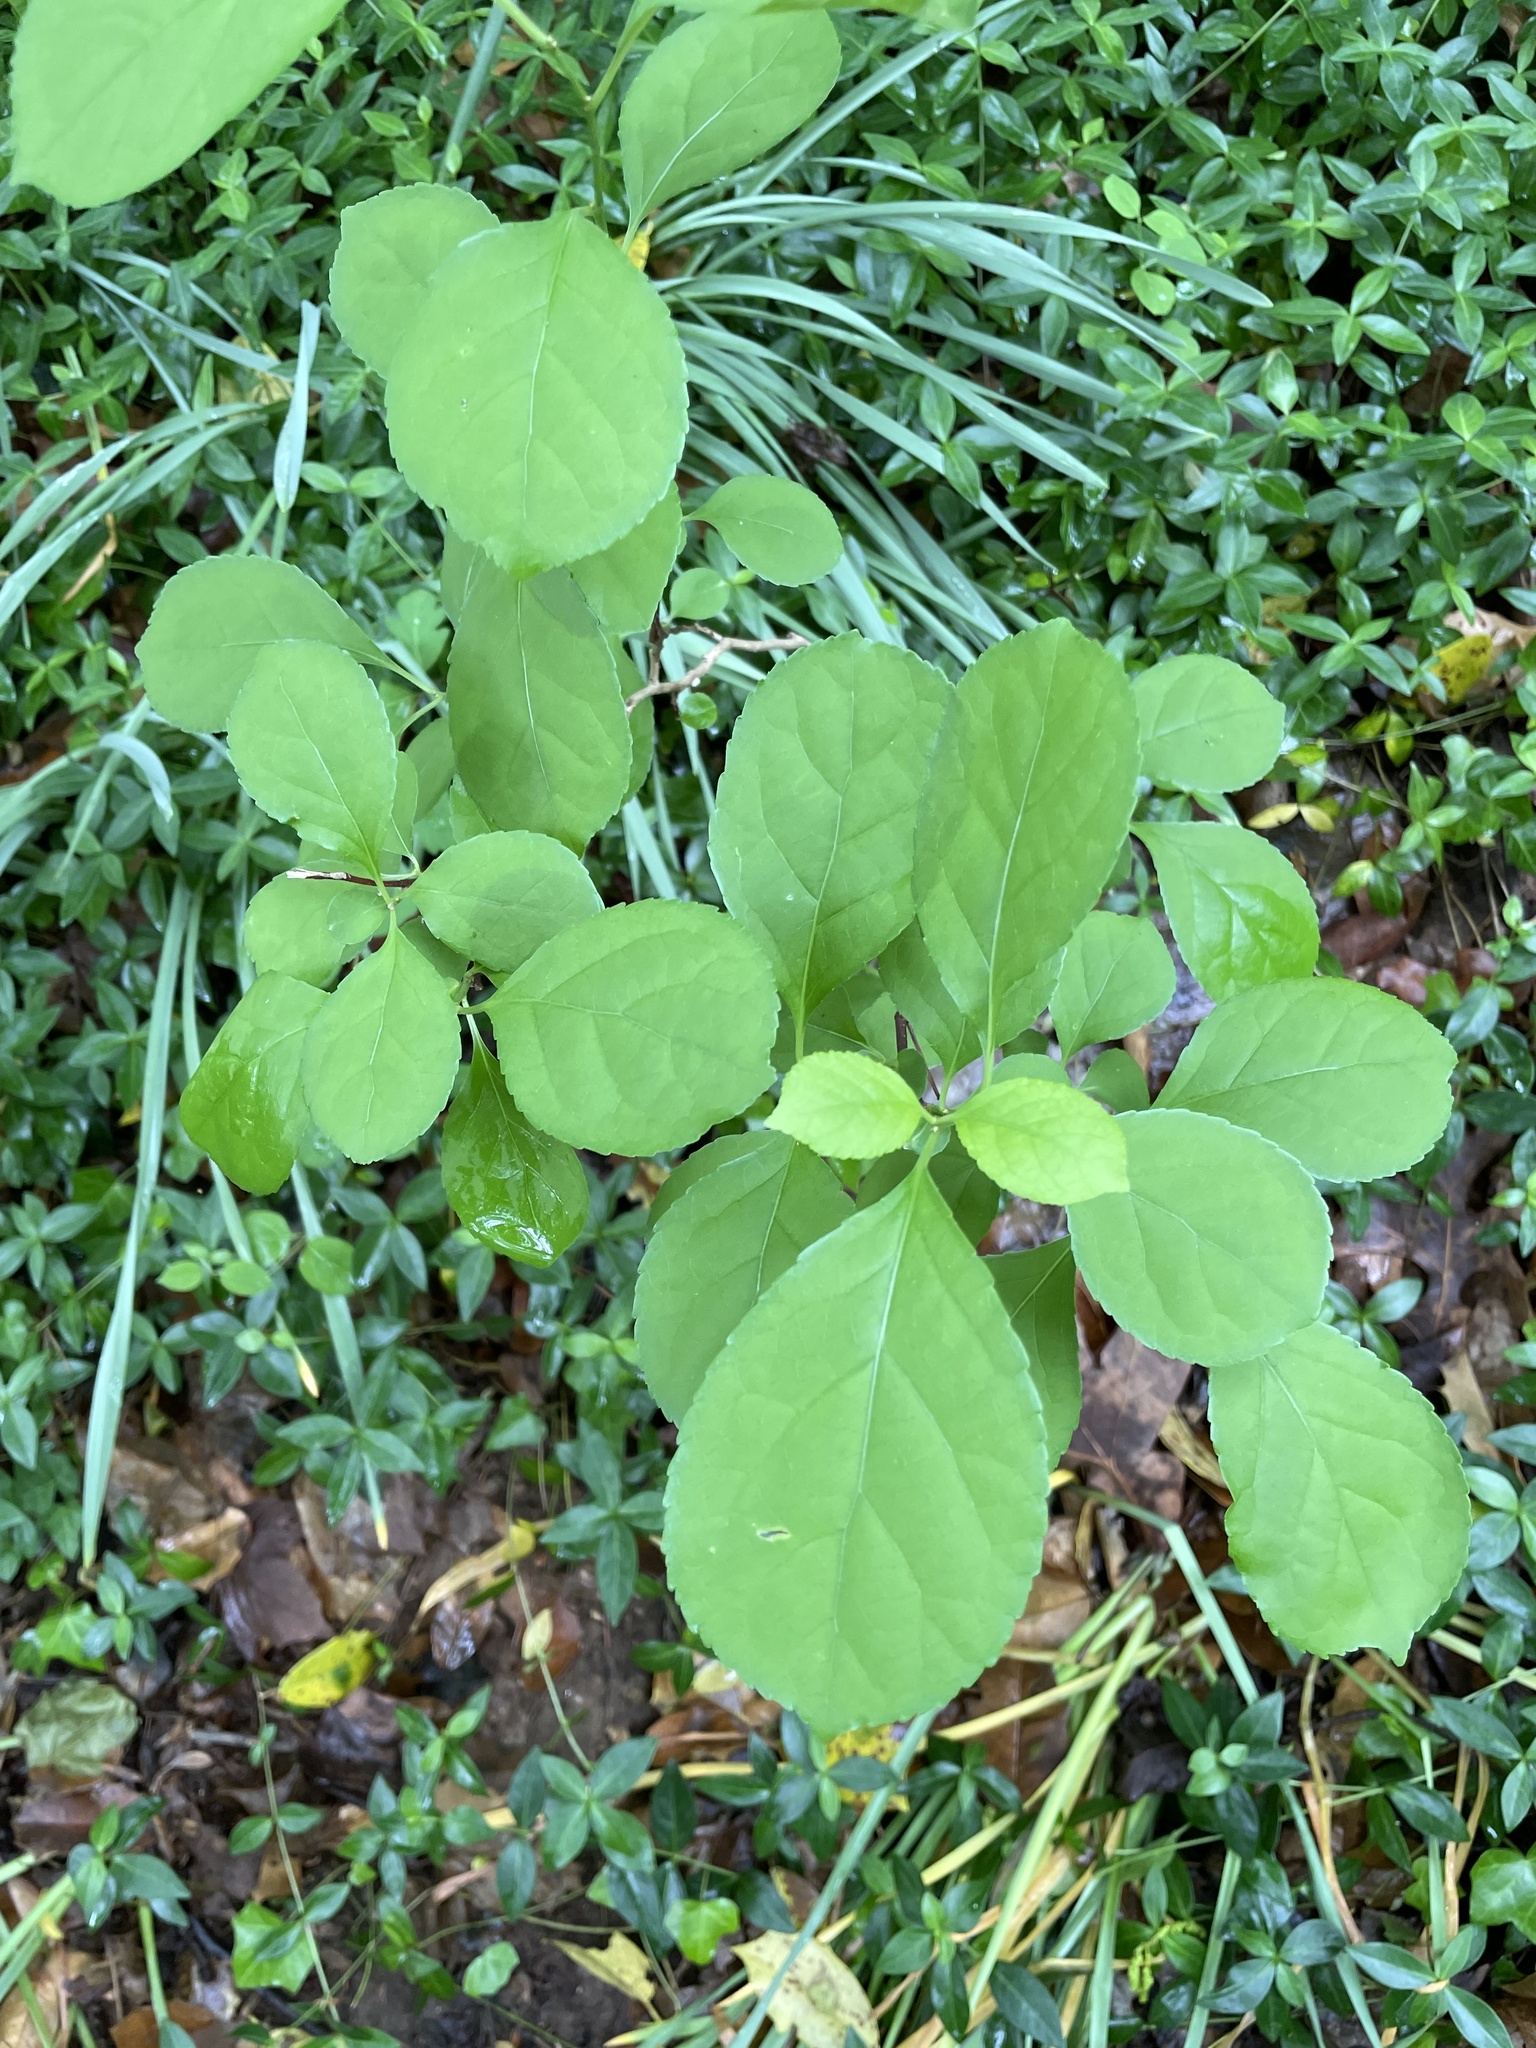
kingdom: Plantae
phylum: Tracheophyta
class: Magnoliopsida
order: Celastrales
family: Celastraceae
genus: Celastrus
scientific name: Celastrus orbiculatus
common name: Oriental bittersweet
